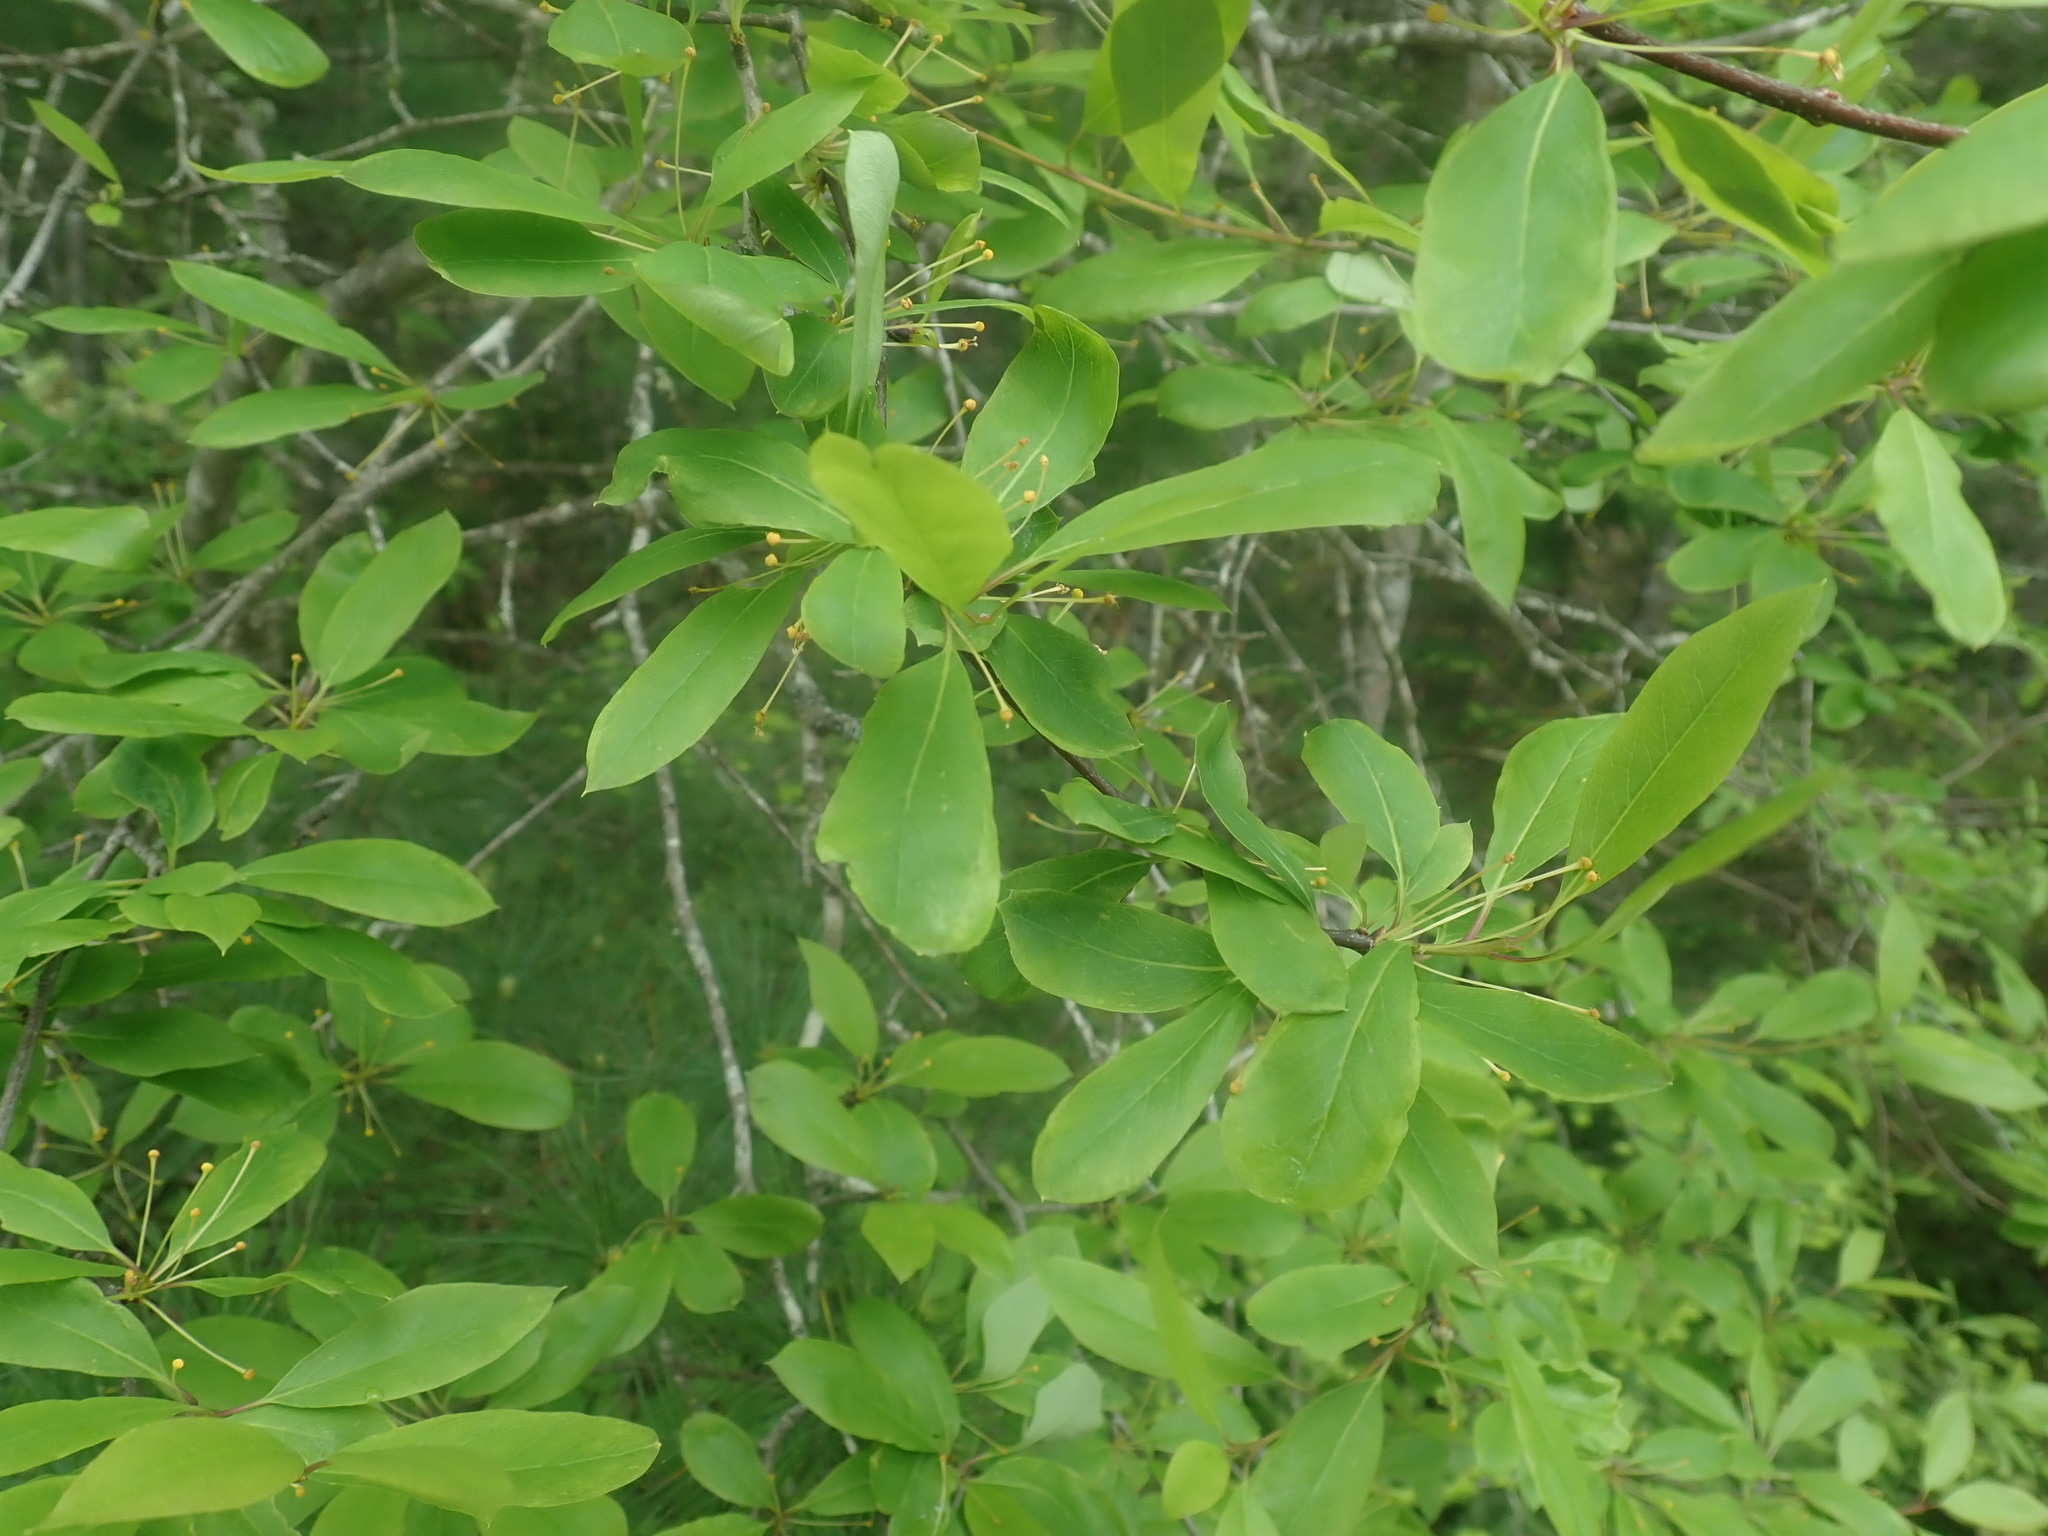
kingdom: Plantae
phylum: Tracheophyta
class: Magnoliopsida
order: Aquifoliales
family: Aquifoliaceae
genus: Ilex
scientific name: Ilex mucronata
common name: Catberry
